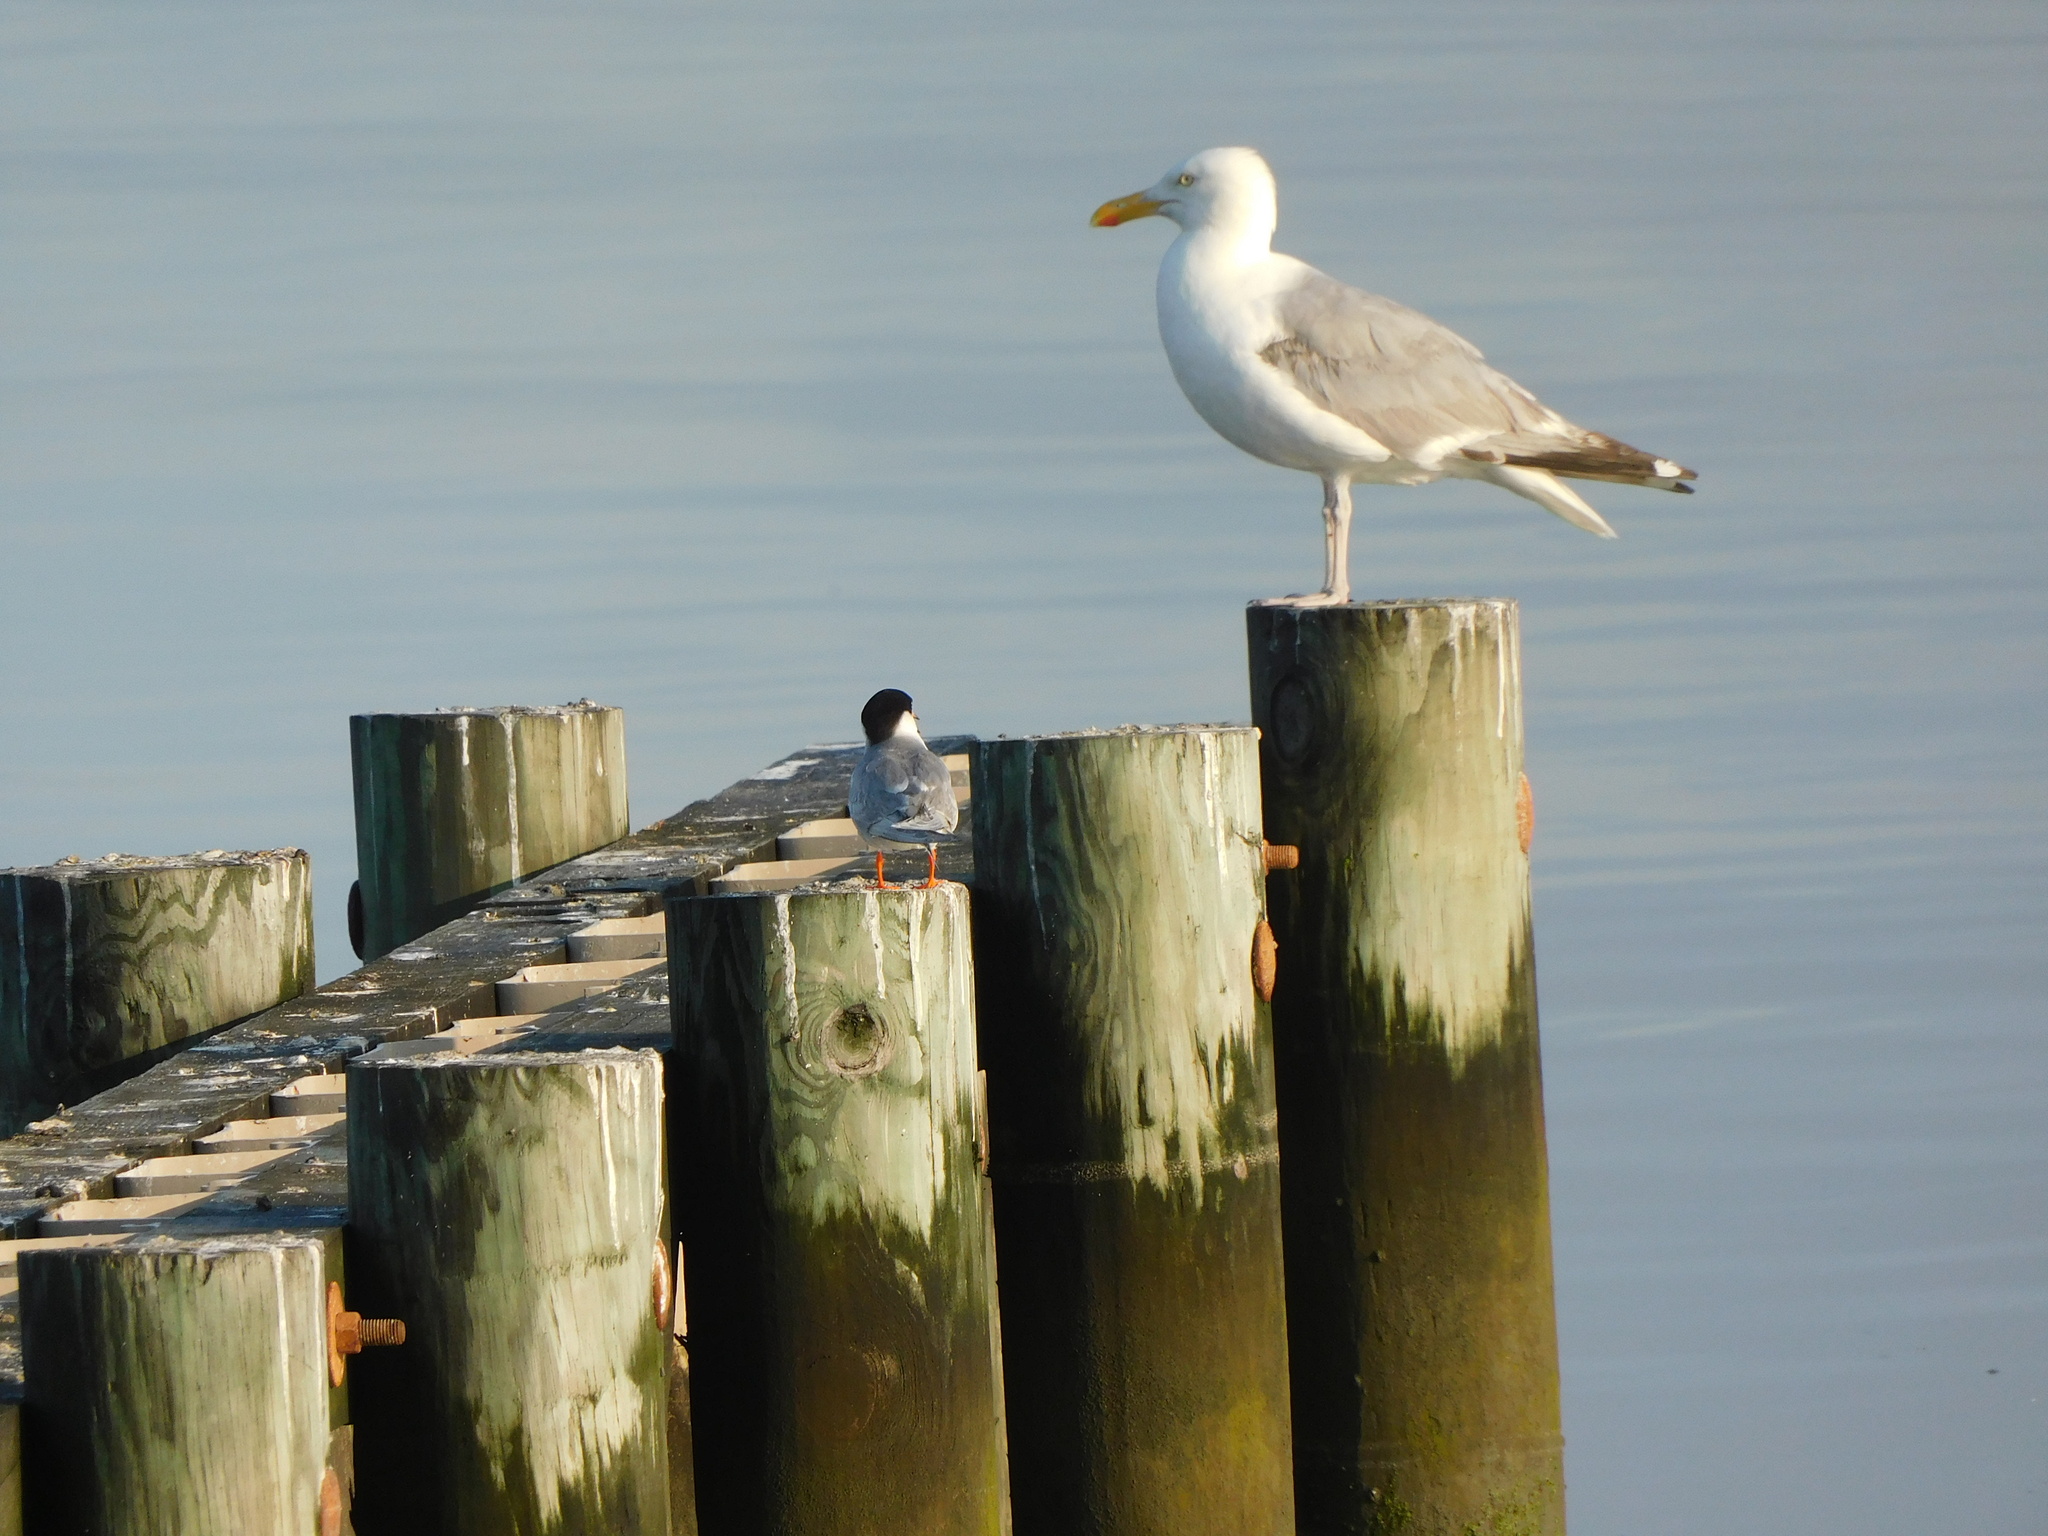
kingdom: Animalia
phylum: Chordata
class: Aves
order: Charadriiformes
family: Laridae
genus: Larus
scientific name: Larus argentatus
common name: Herring gull
